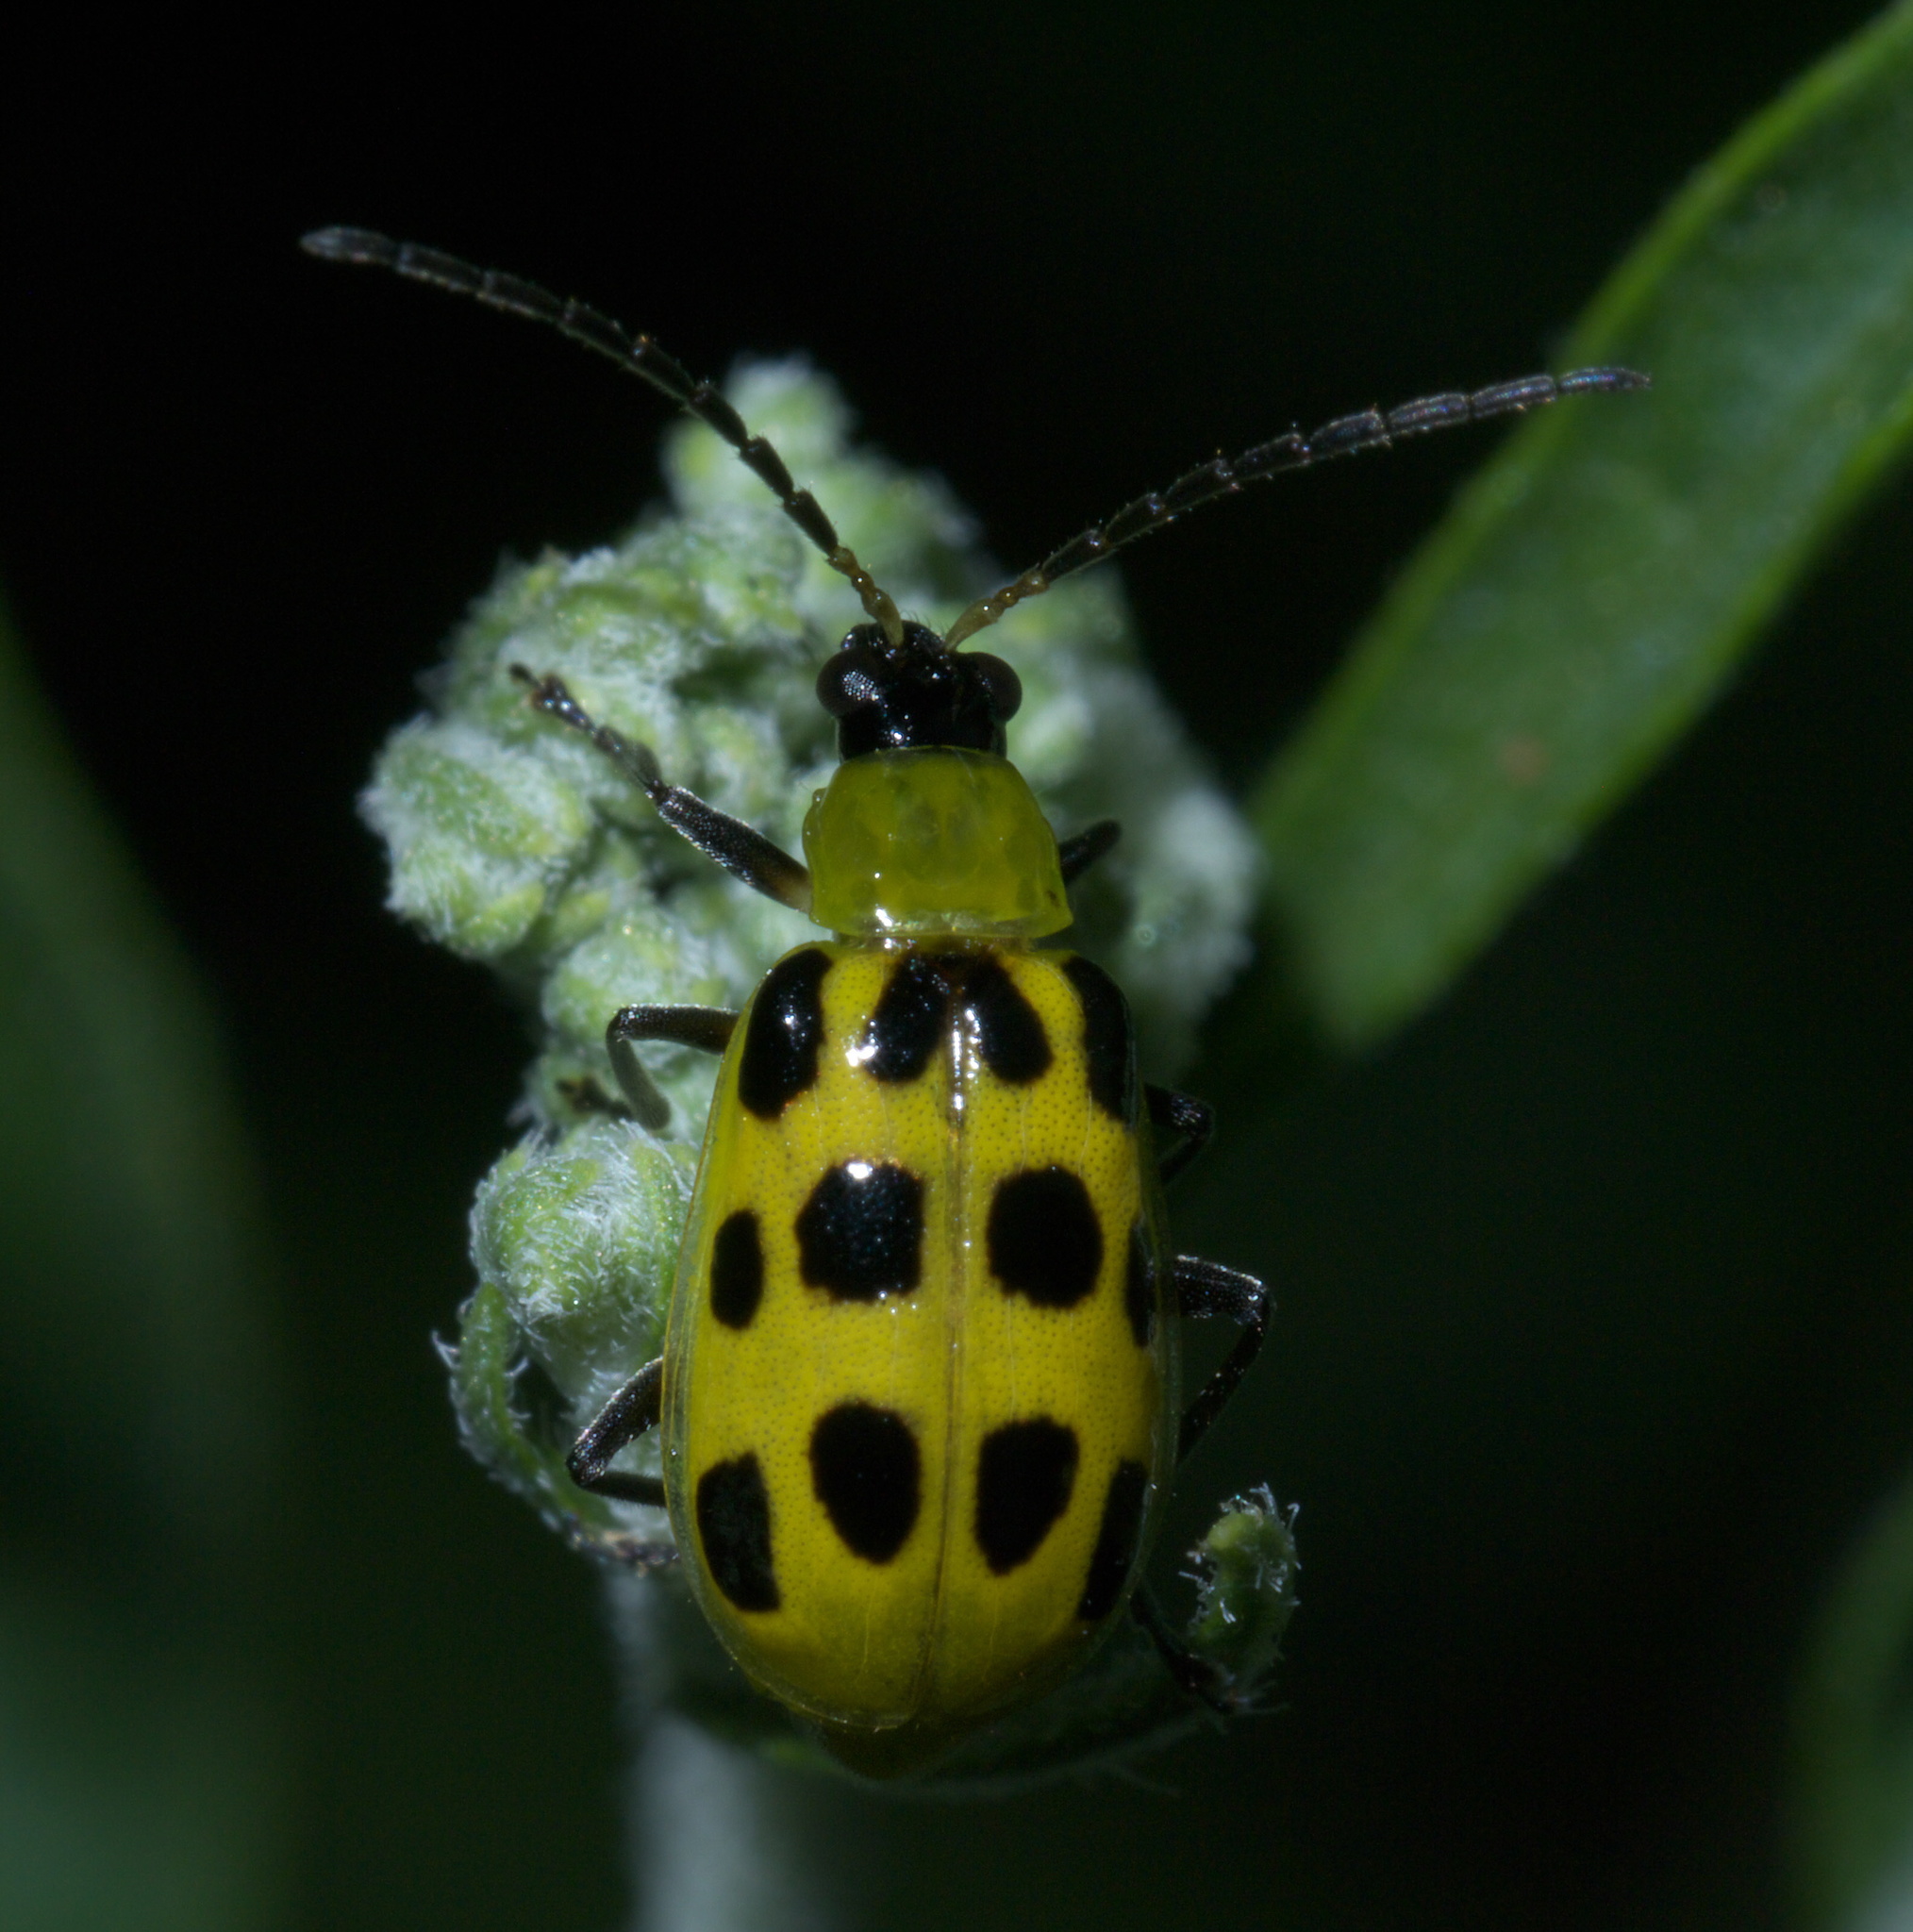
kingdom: Animalia
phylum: Arthropoda
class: Insecta
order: Coleoptera
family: Chrysomelidae
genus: Diabrotica
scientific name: Diabrotica undecimpunctata
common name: Spotted cucumber beetle
